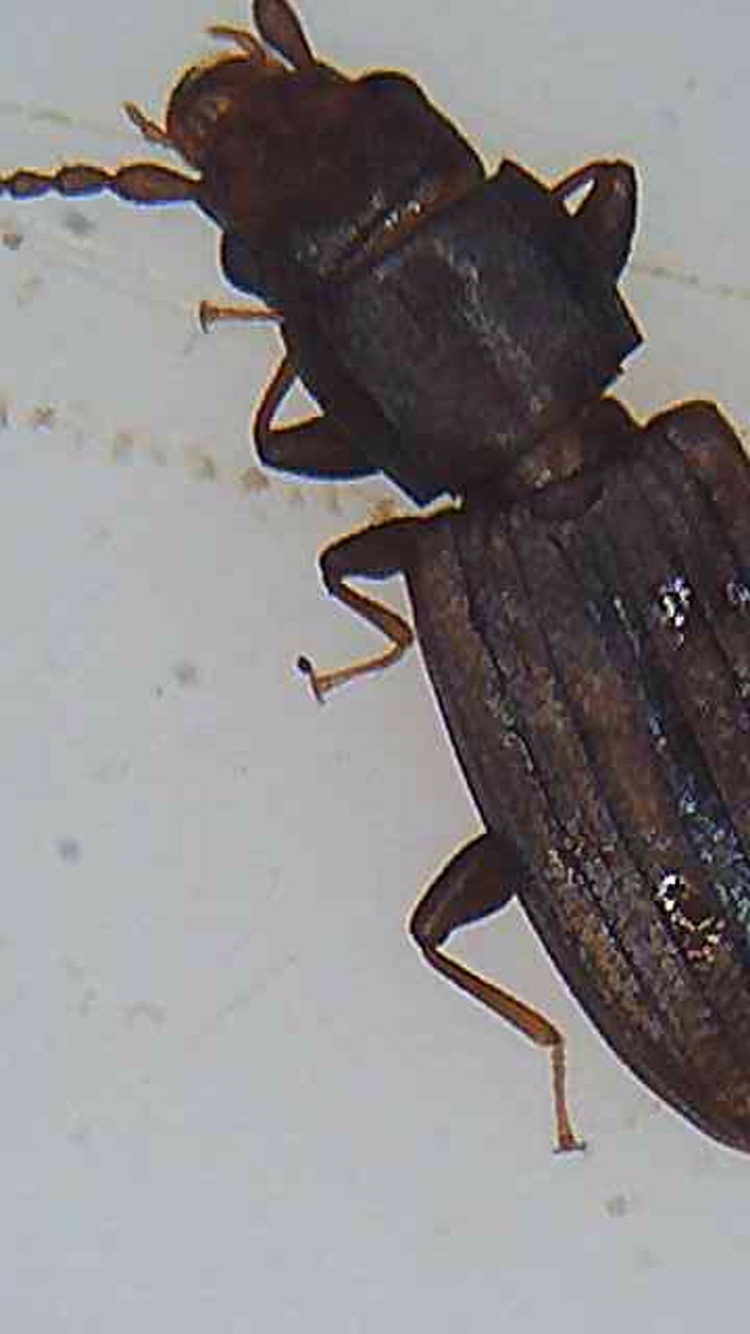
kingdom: Animalia
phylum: Arthropoda
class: Insecta
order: Coleoptera
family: Laemophloeidae
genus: Microbrontes
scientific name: Microbrontes
